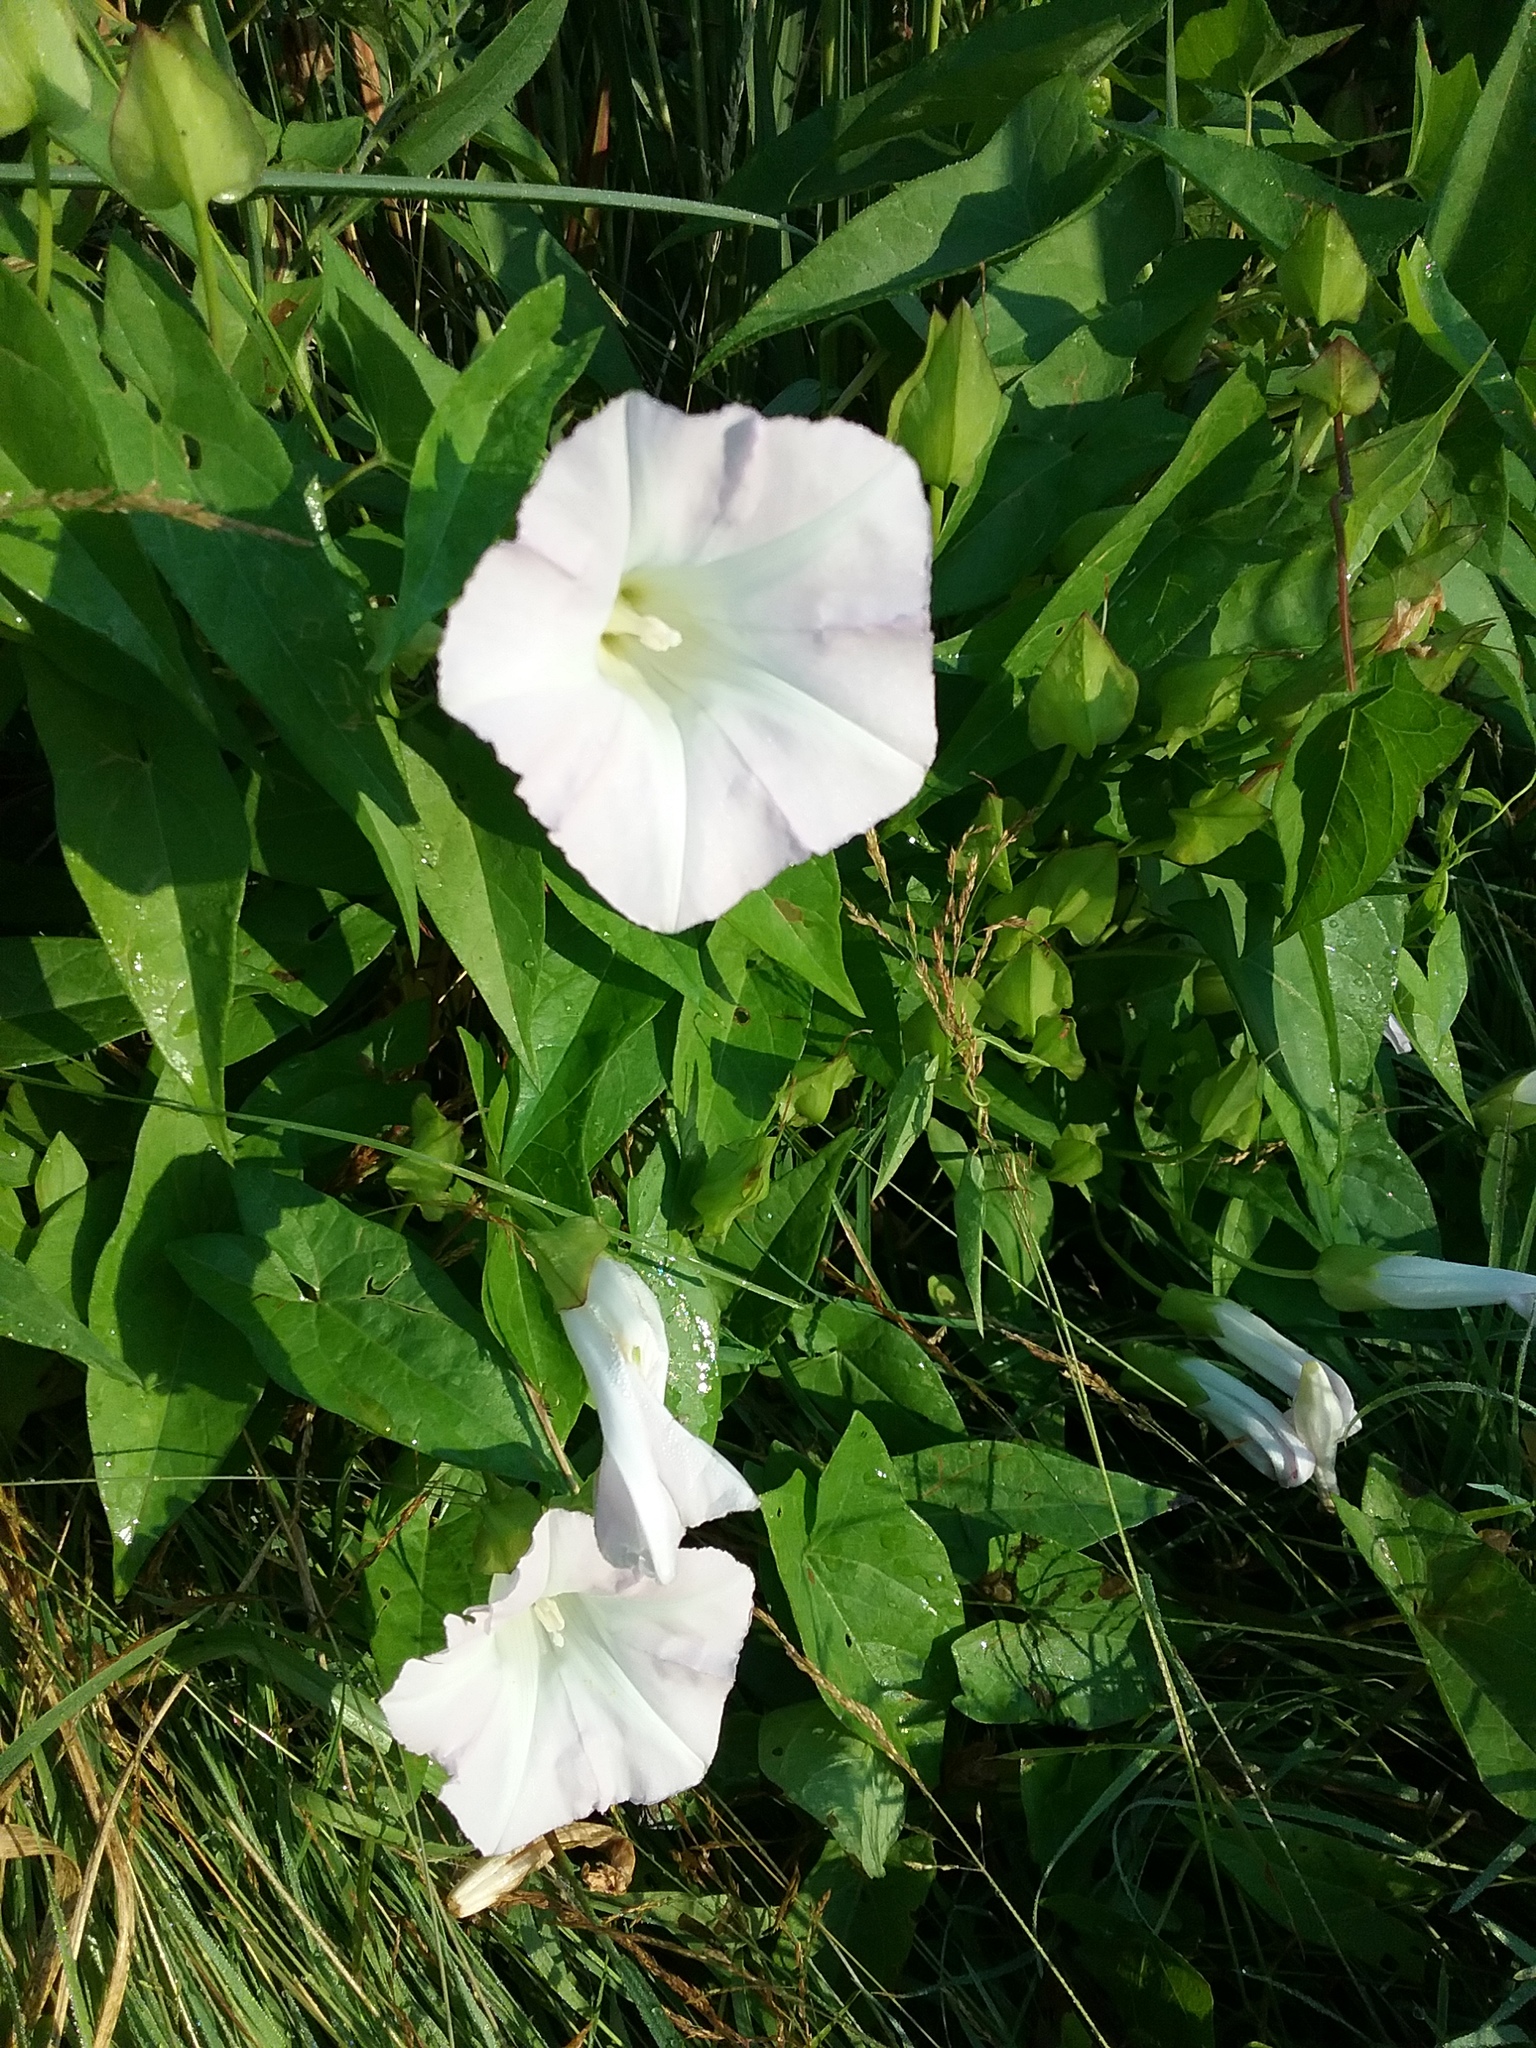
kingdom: Plantae
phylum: Tracheophyta
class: Magnoliopsida
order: Solanales
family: Convolvulaceae
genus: Calystegia
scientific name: Calystegia sepium
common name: Hedge bindweed
